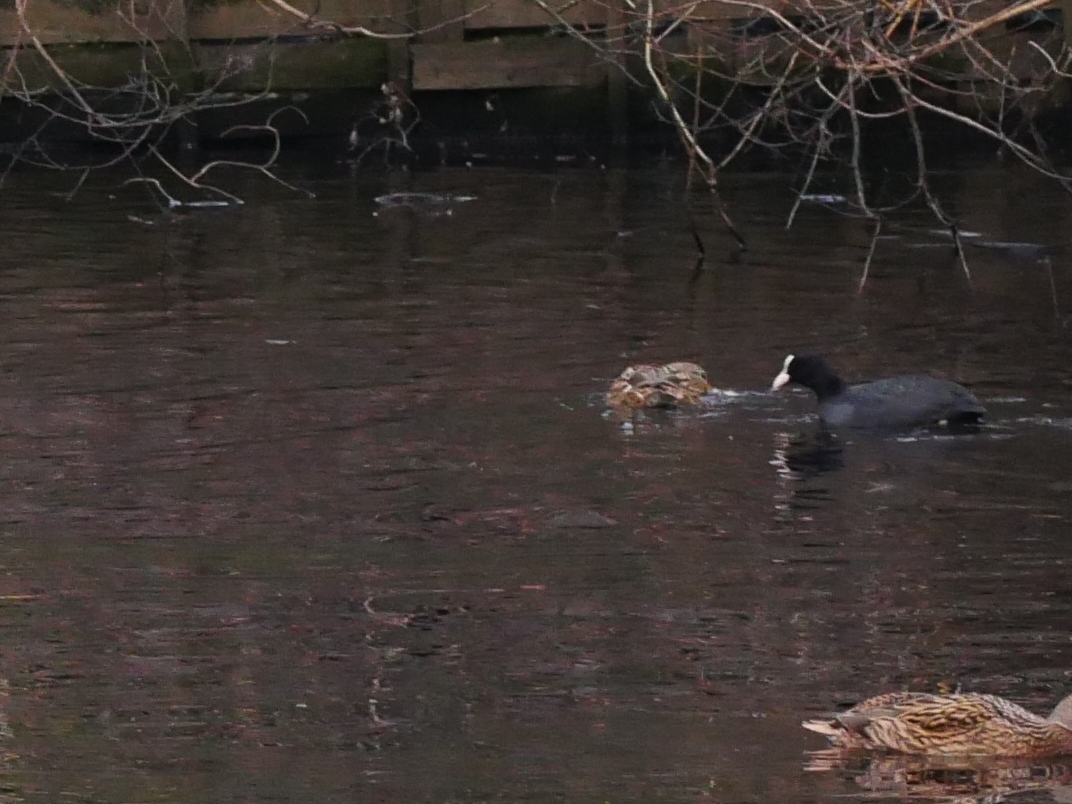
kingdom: Animalia
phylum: Chordata
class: Aves
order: Gruiformes
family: Rallidae
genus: Fulica
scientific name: Fulica atra
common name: Eurasian coot
